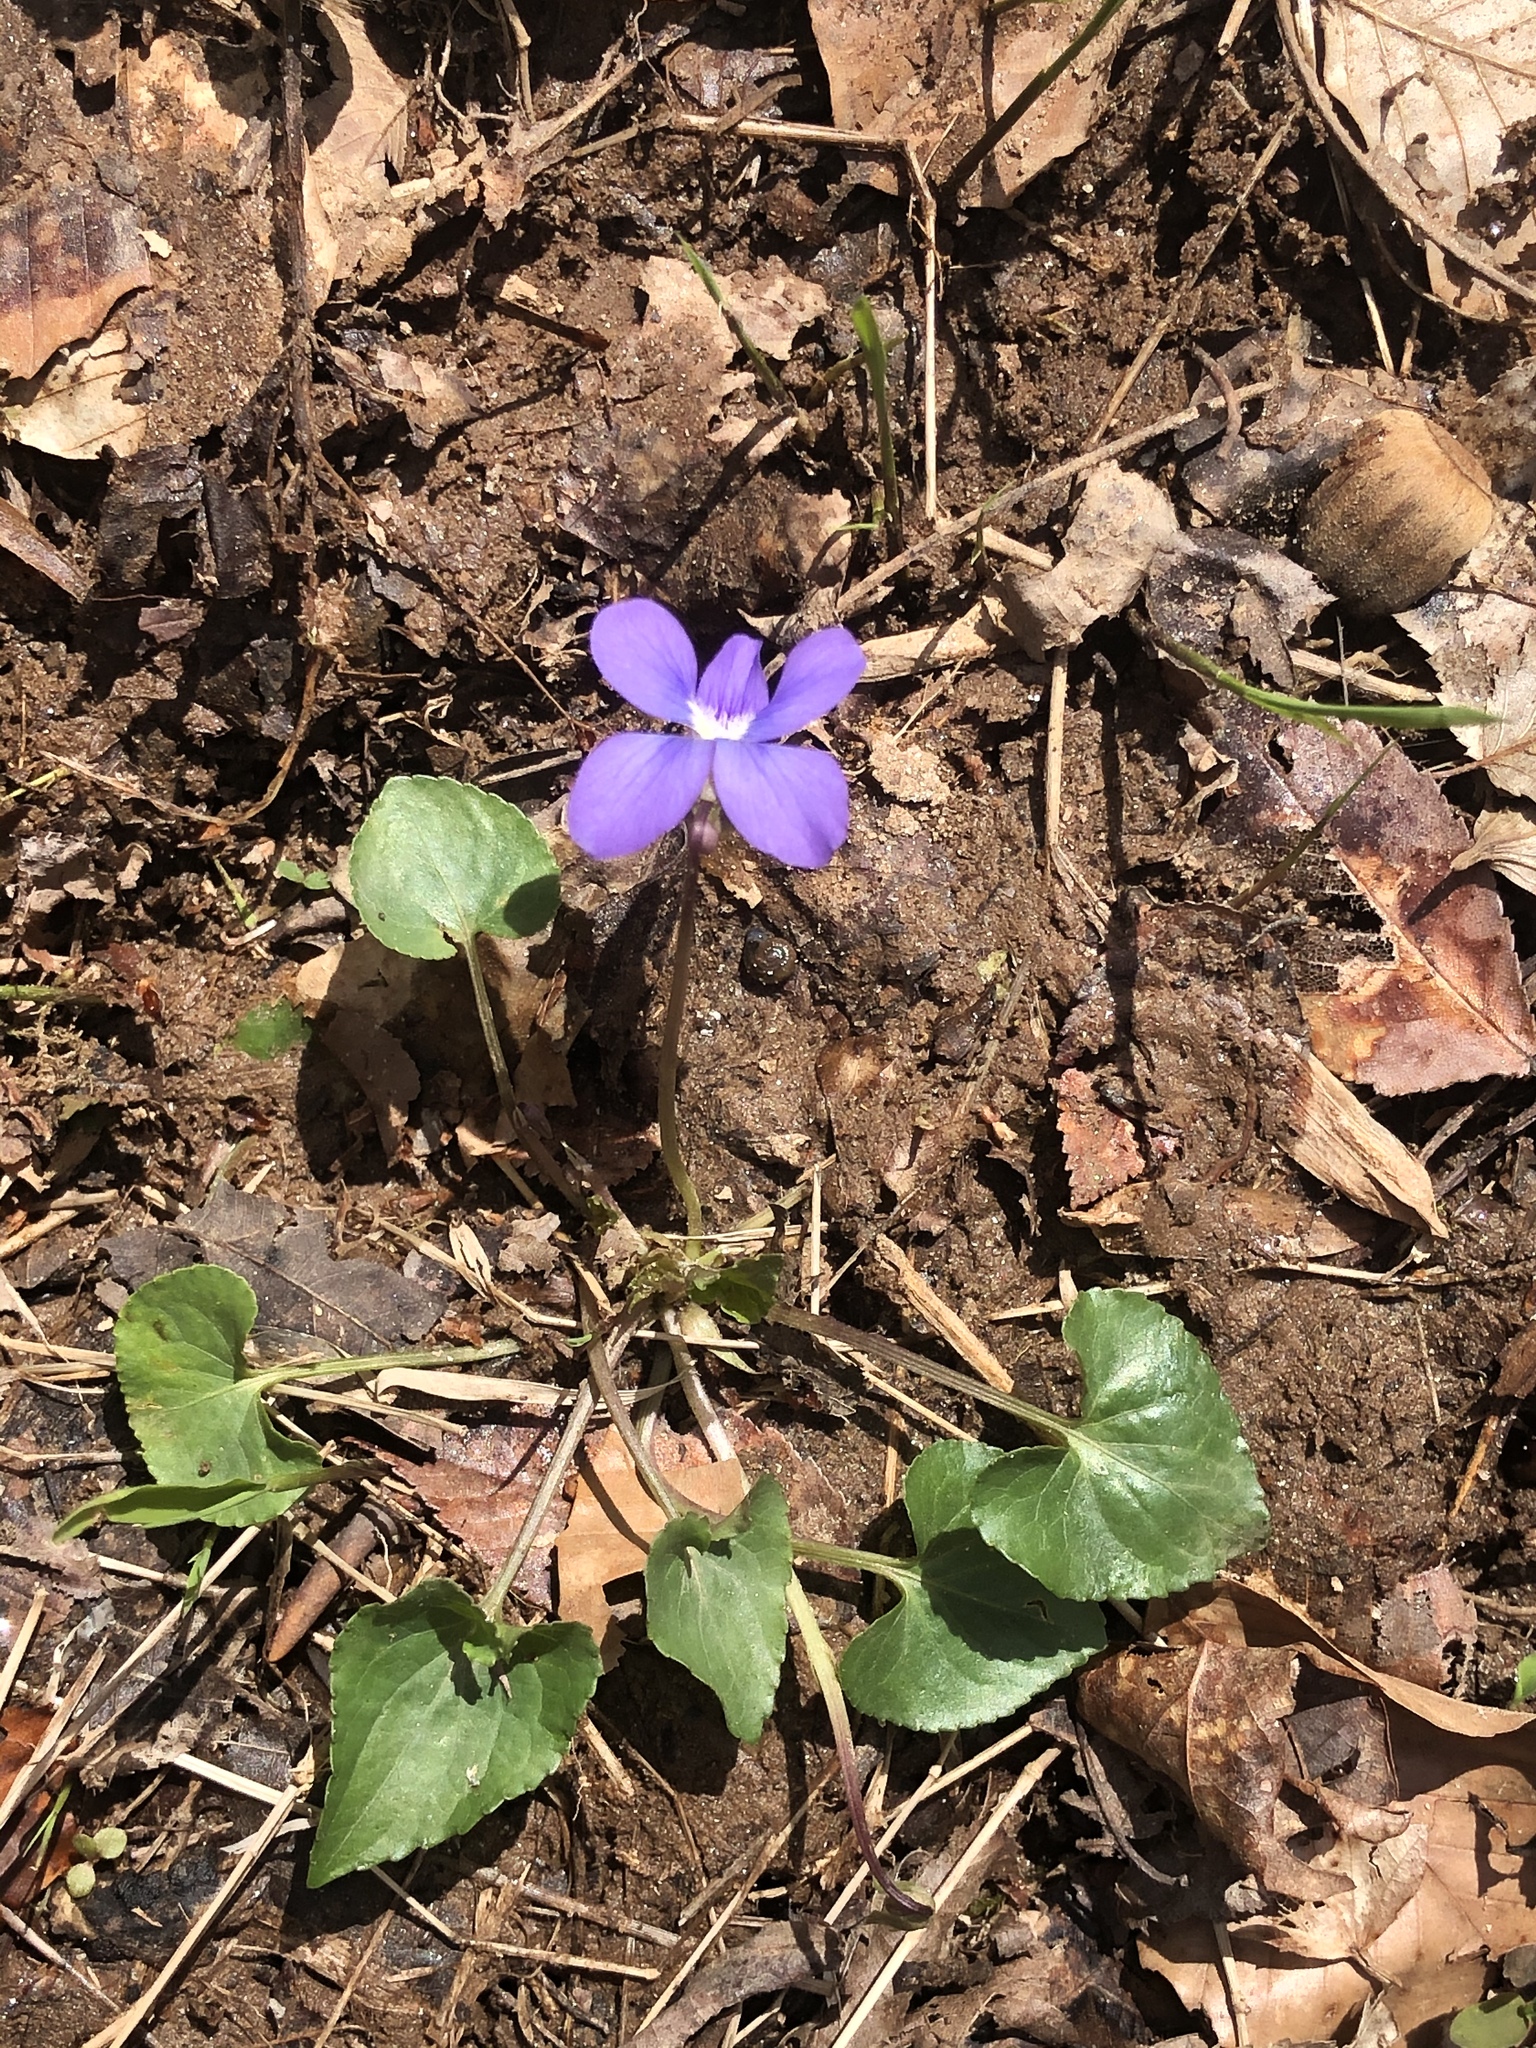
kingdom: Plantae
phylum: Tracheophyta
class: Magnoliopsida
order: Malpighiales
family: Violaceae
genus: Viola
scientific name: Viola sororia
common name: Dooryard violet
